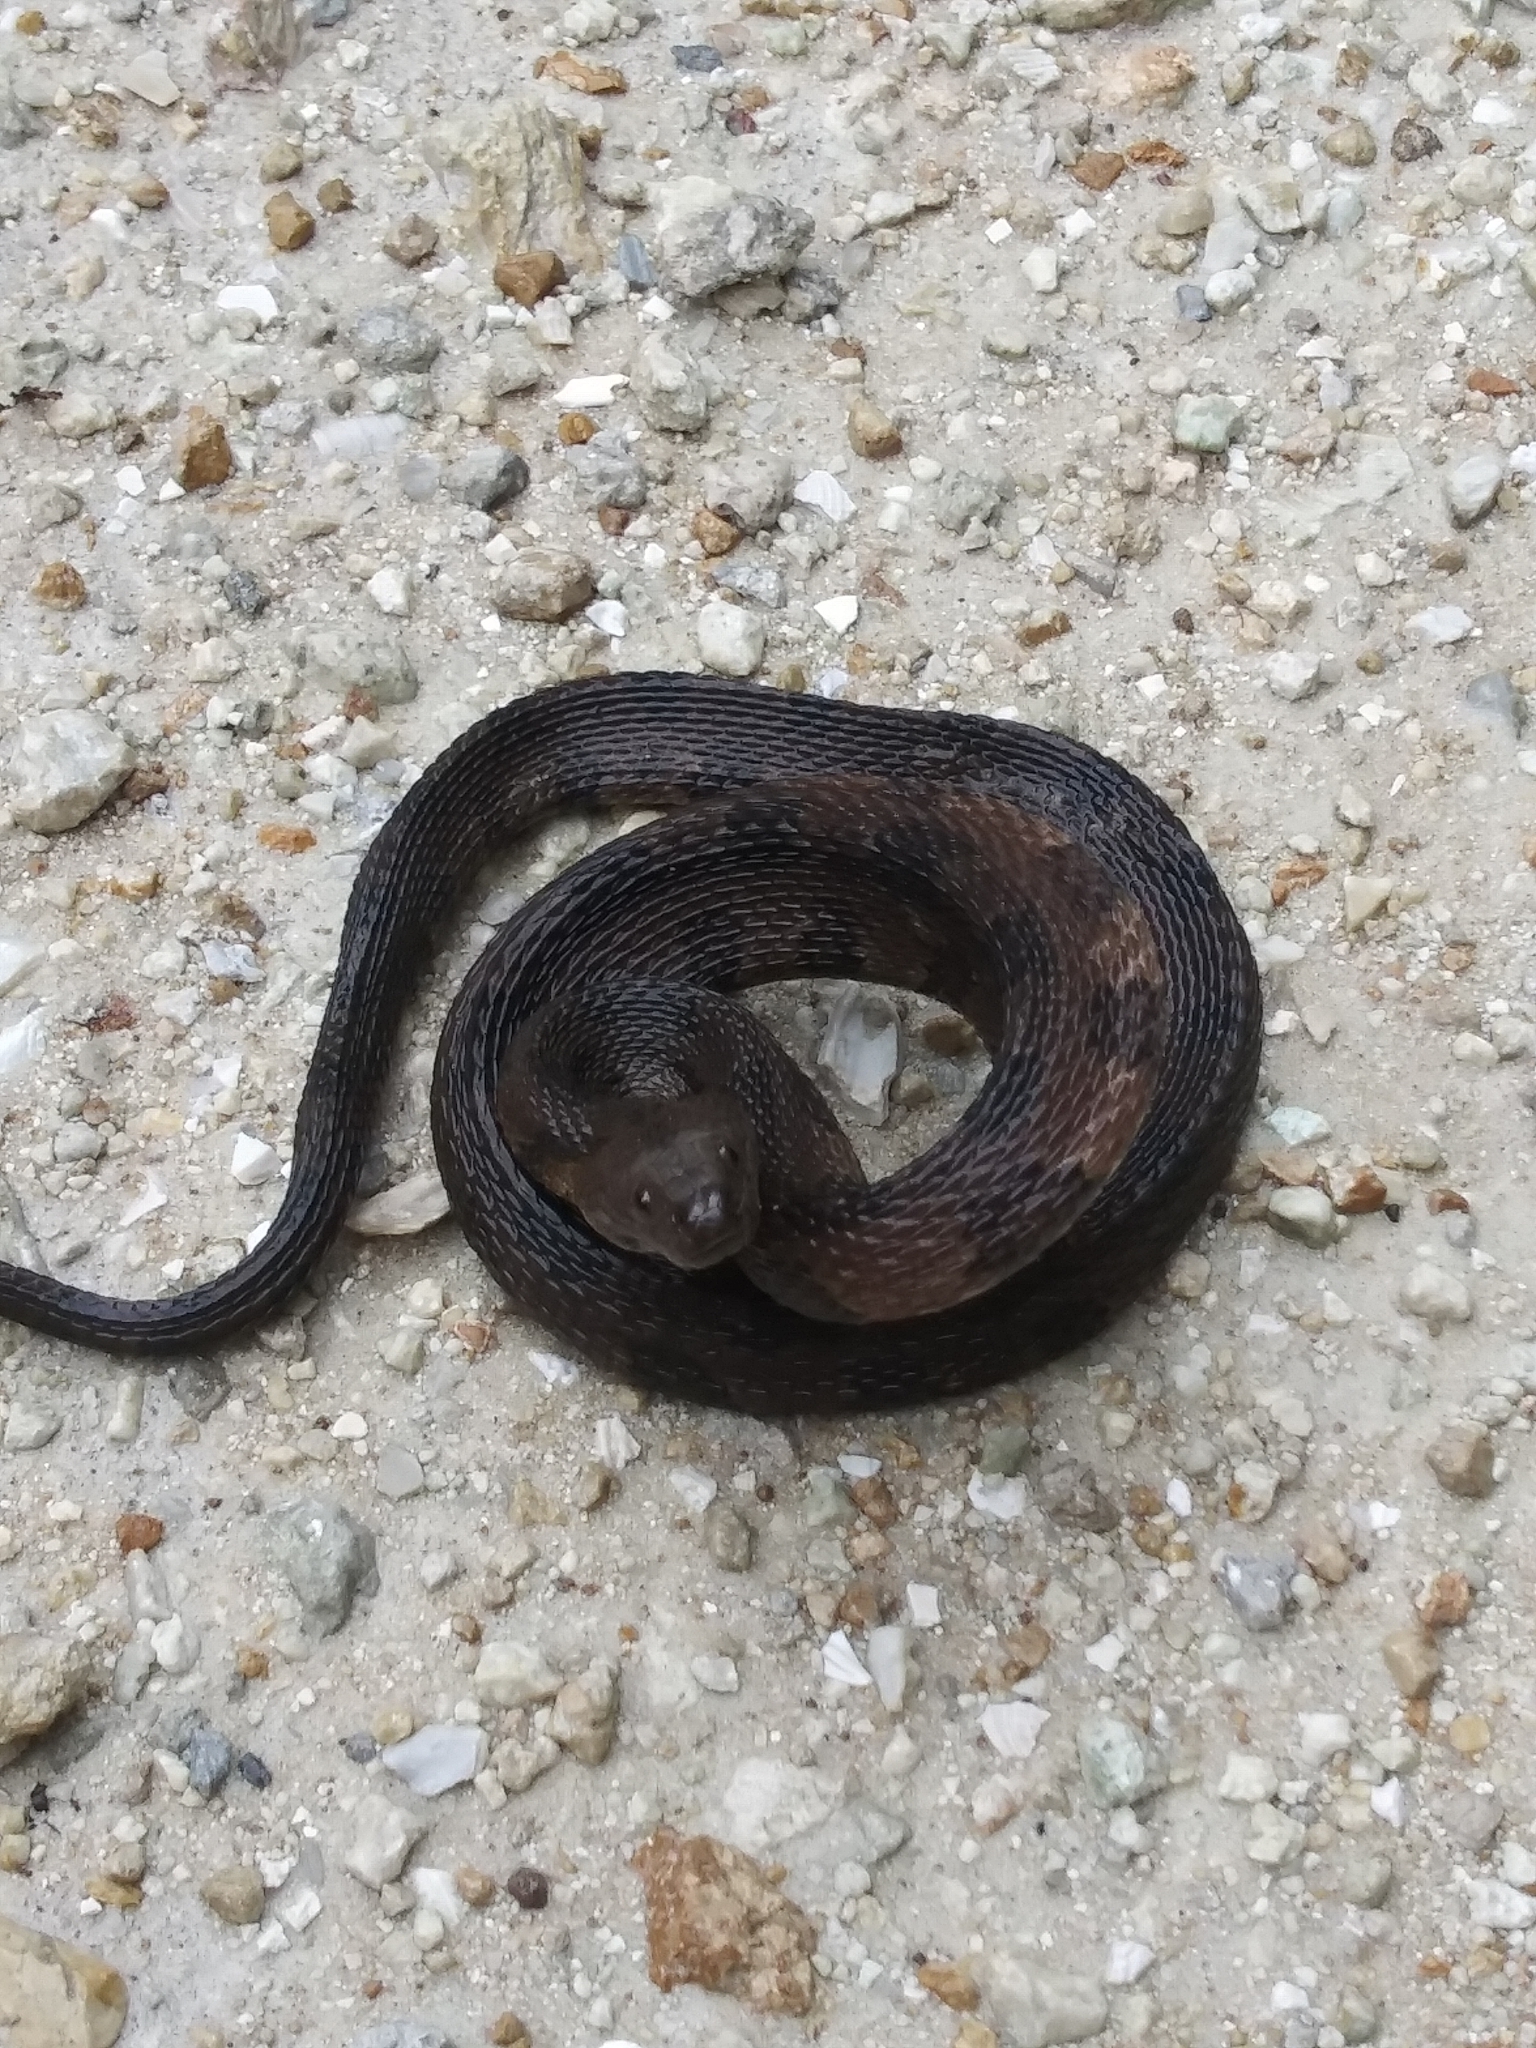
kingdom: Animalia
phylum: Chordata
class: Squamata
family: Colubridae
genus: Nerodia
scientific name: Nerodia taxispilota
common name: Brown water snake
